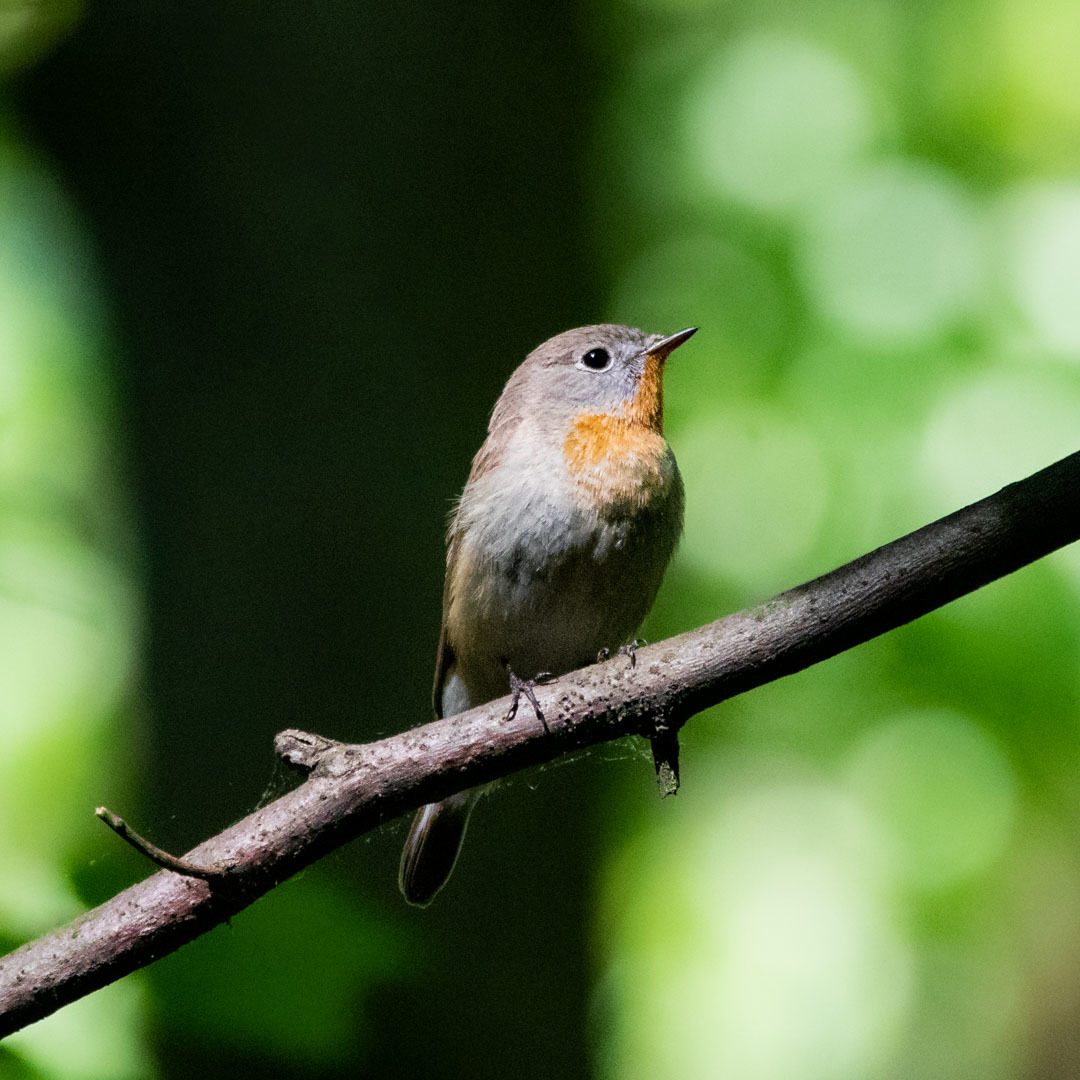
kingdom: Animalia
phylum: Chordata
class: Aves
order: Passeriformes
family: Muscicapidae
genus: Ficedula
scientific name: Ficedula parva
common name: Red-breasted flycatcher
